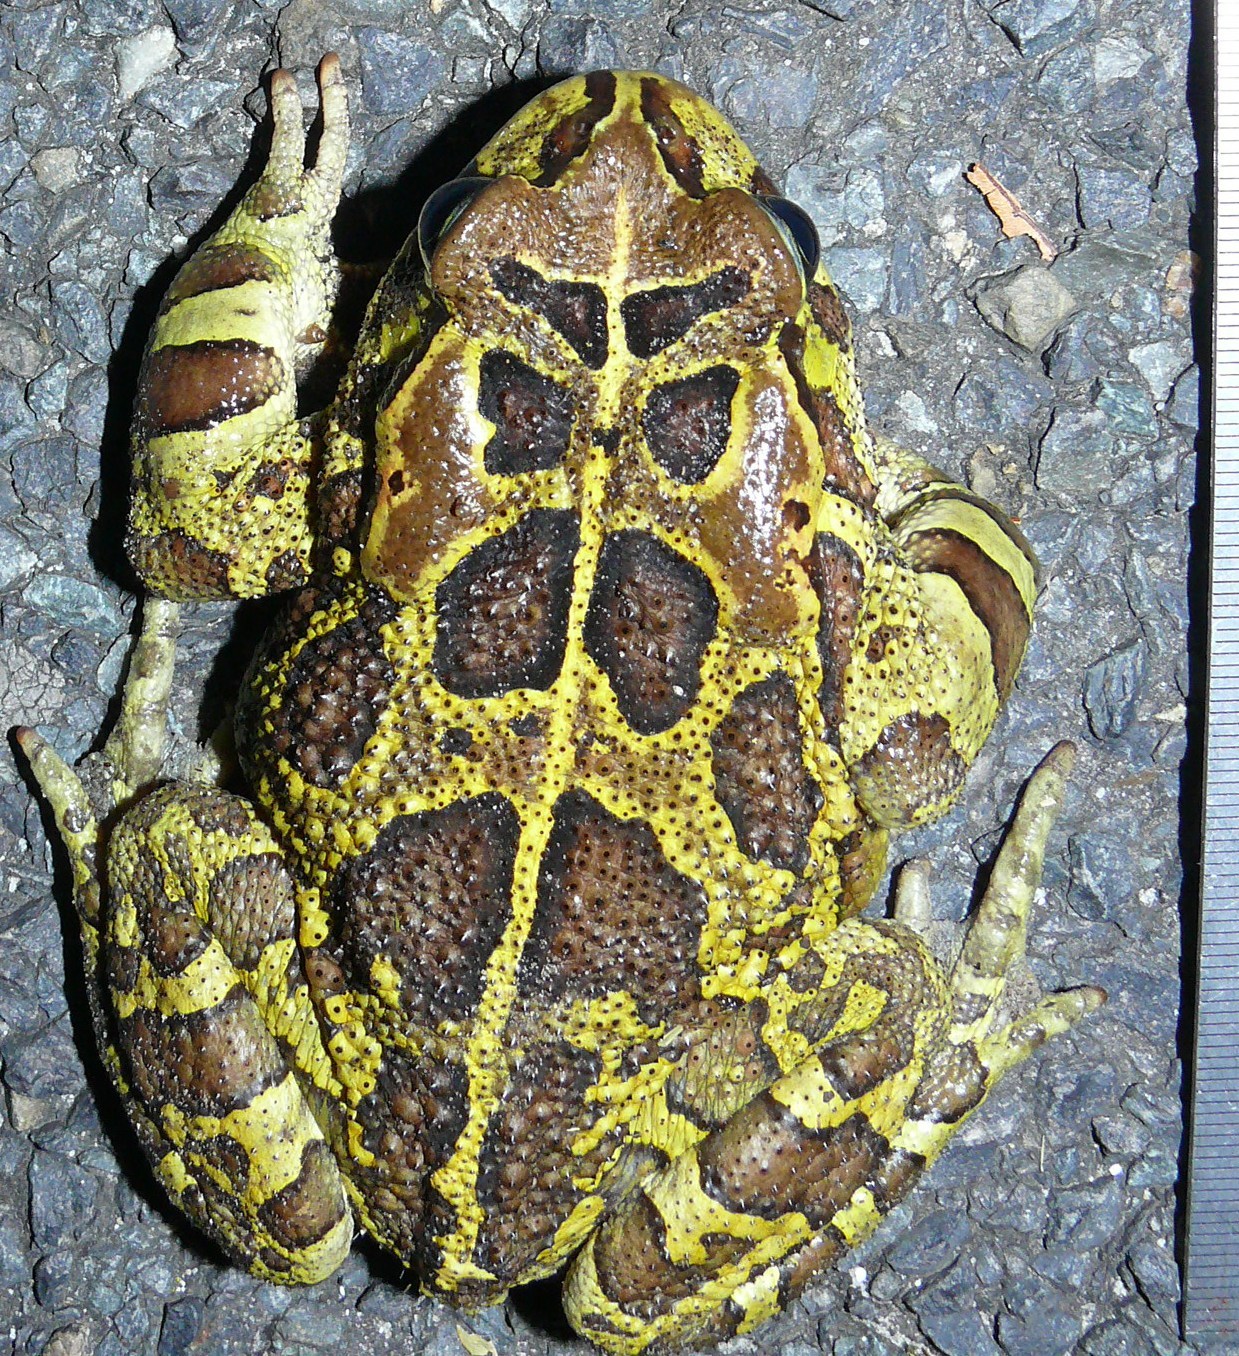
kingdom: Animalia
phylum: Chordata
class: Amphibia
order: Anura
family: Bufonidae
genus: Sclerophrys
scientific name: Sclerophrys pantherina
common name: Panther toad
